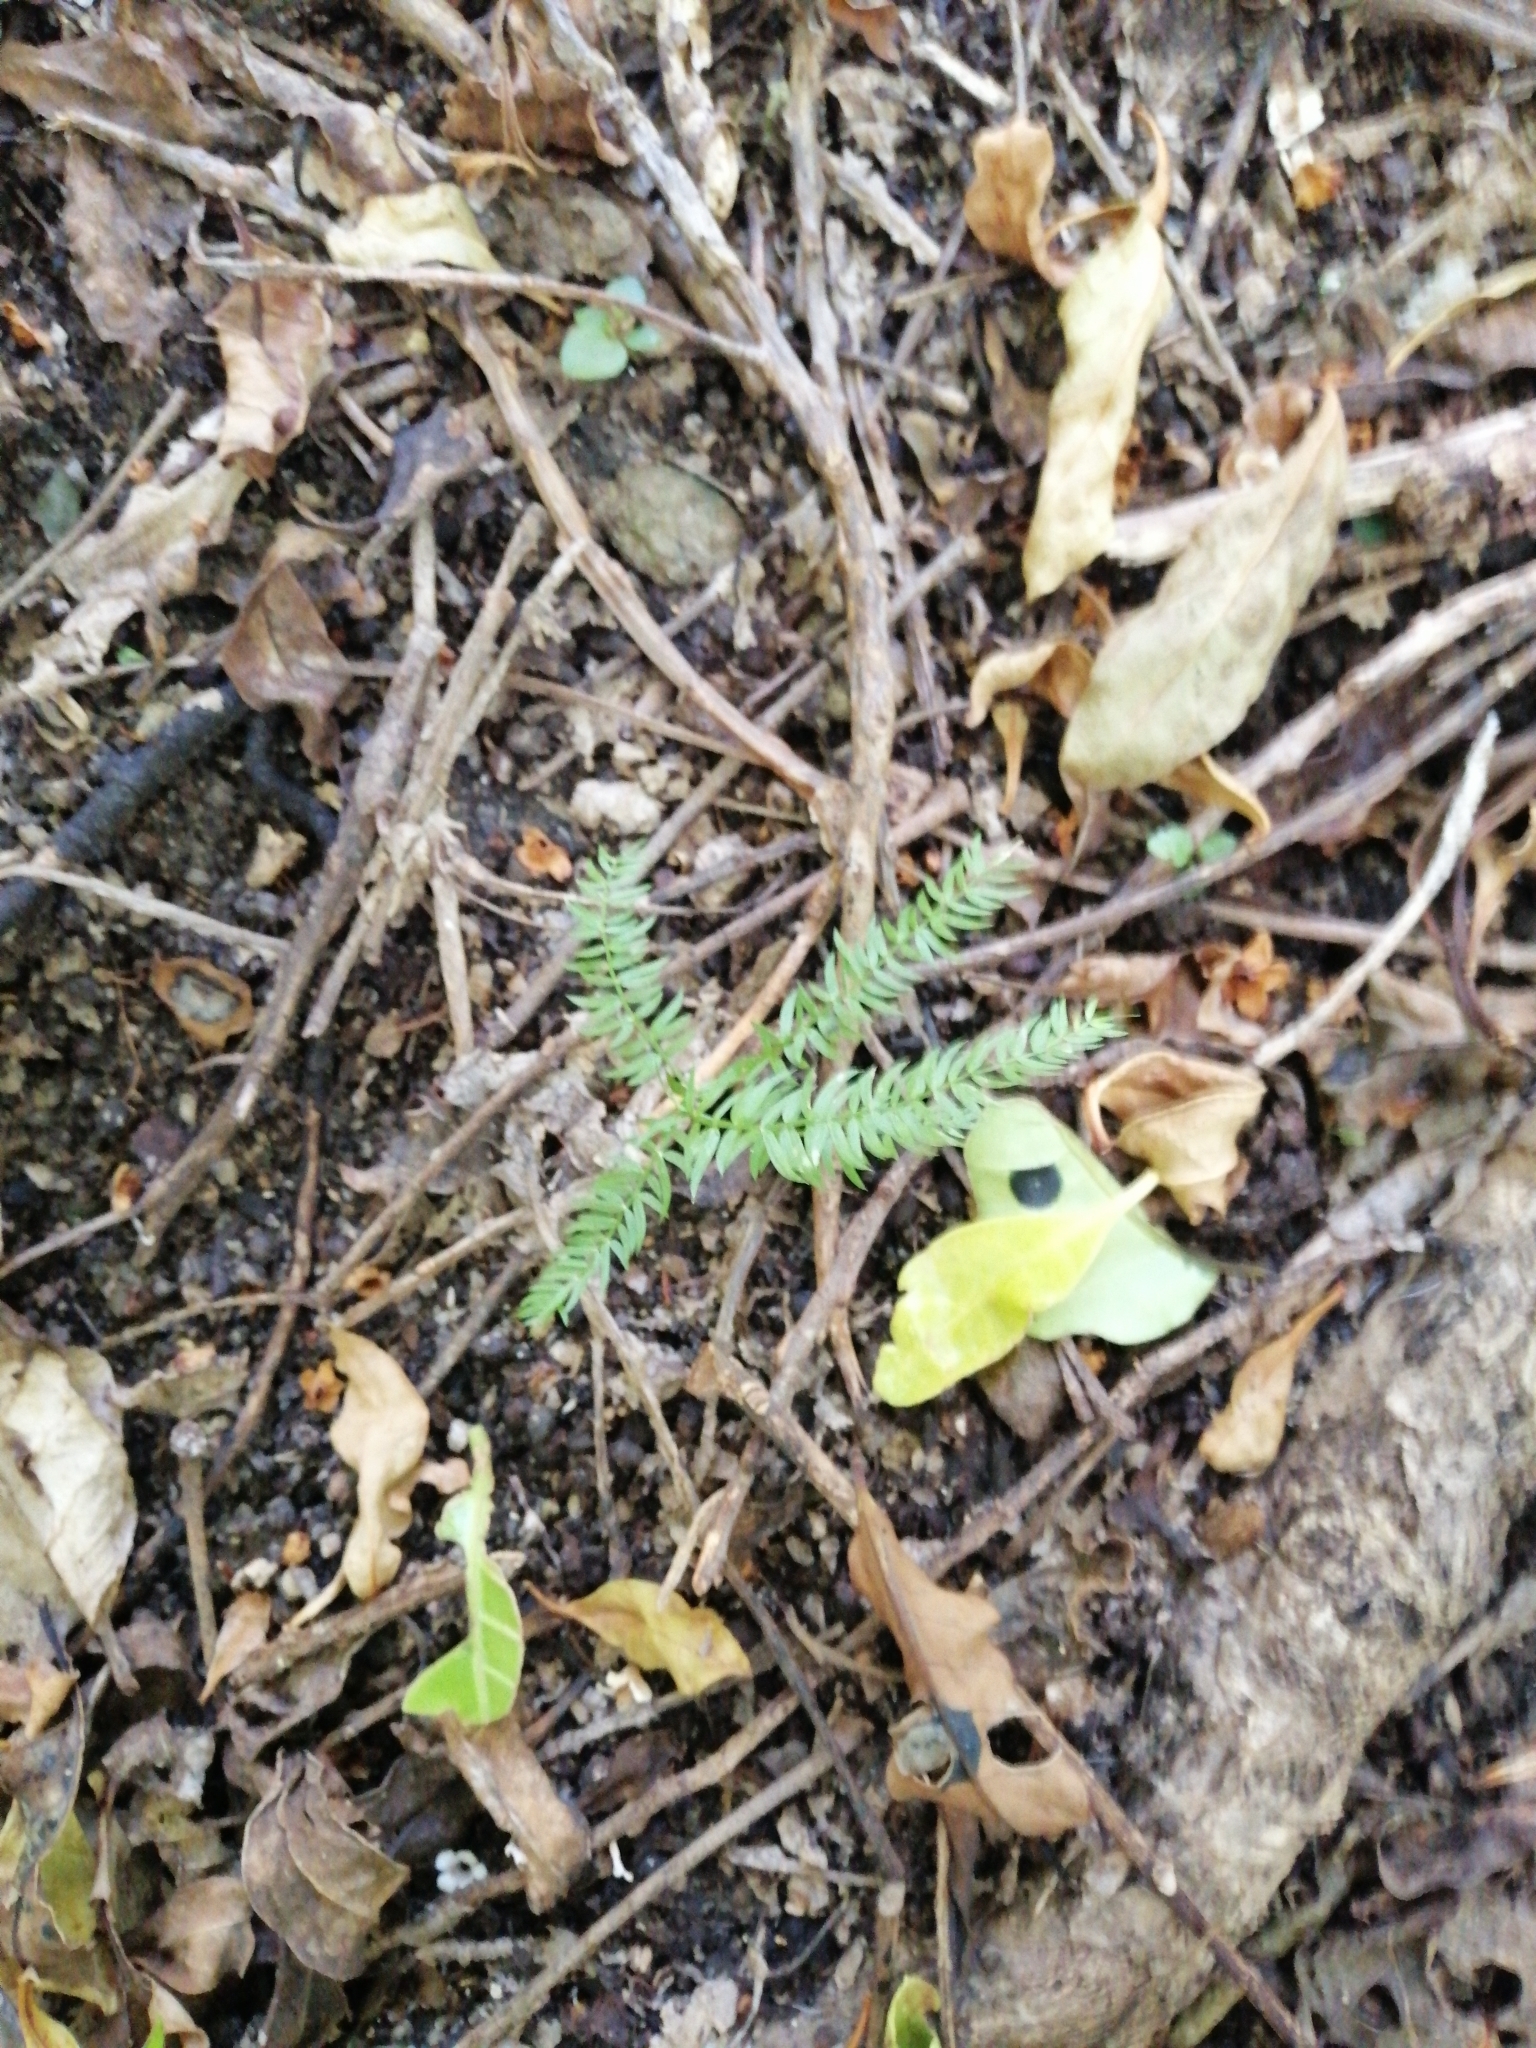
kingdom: Plantae
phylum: Tracheophyta
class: Liliopsida
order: Asparagales
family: Asparagaceae
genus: Asparagus
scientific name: Asparagus scandens
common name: Asparagus-fern
